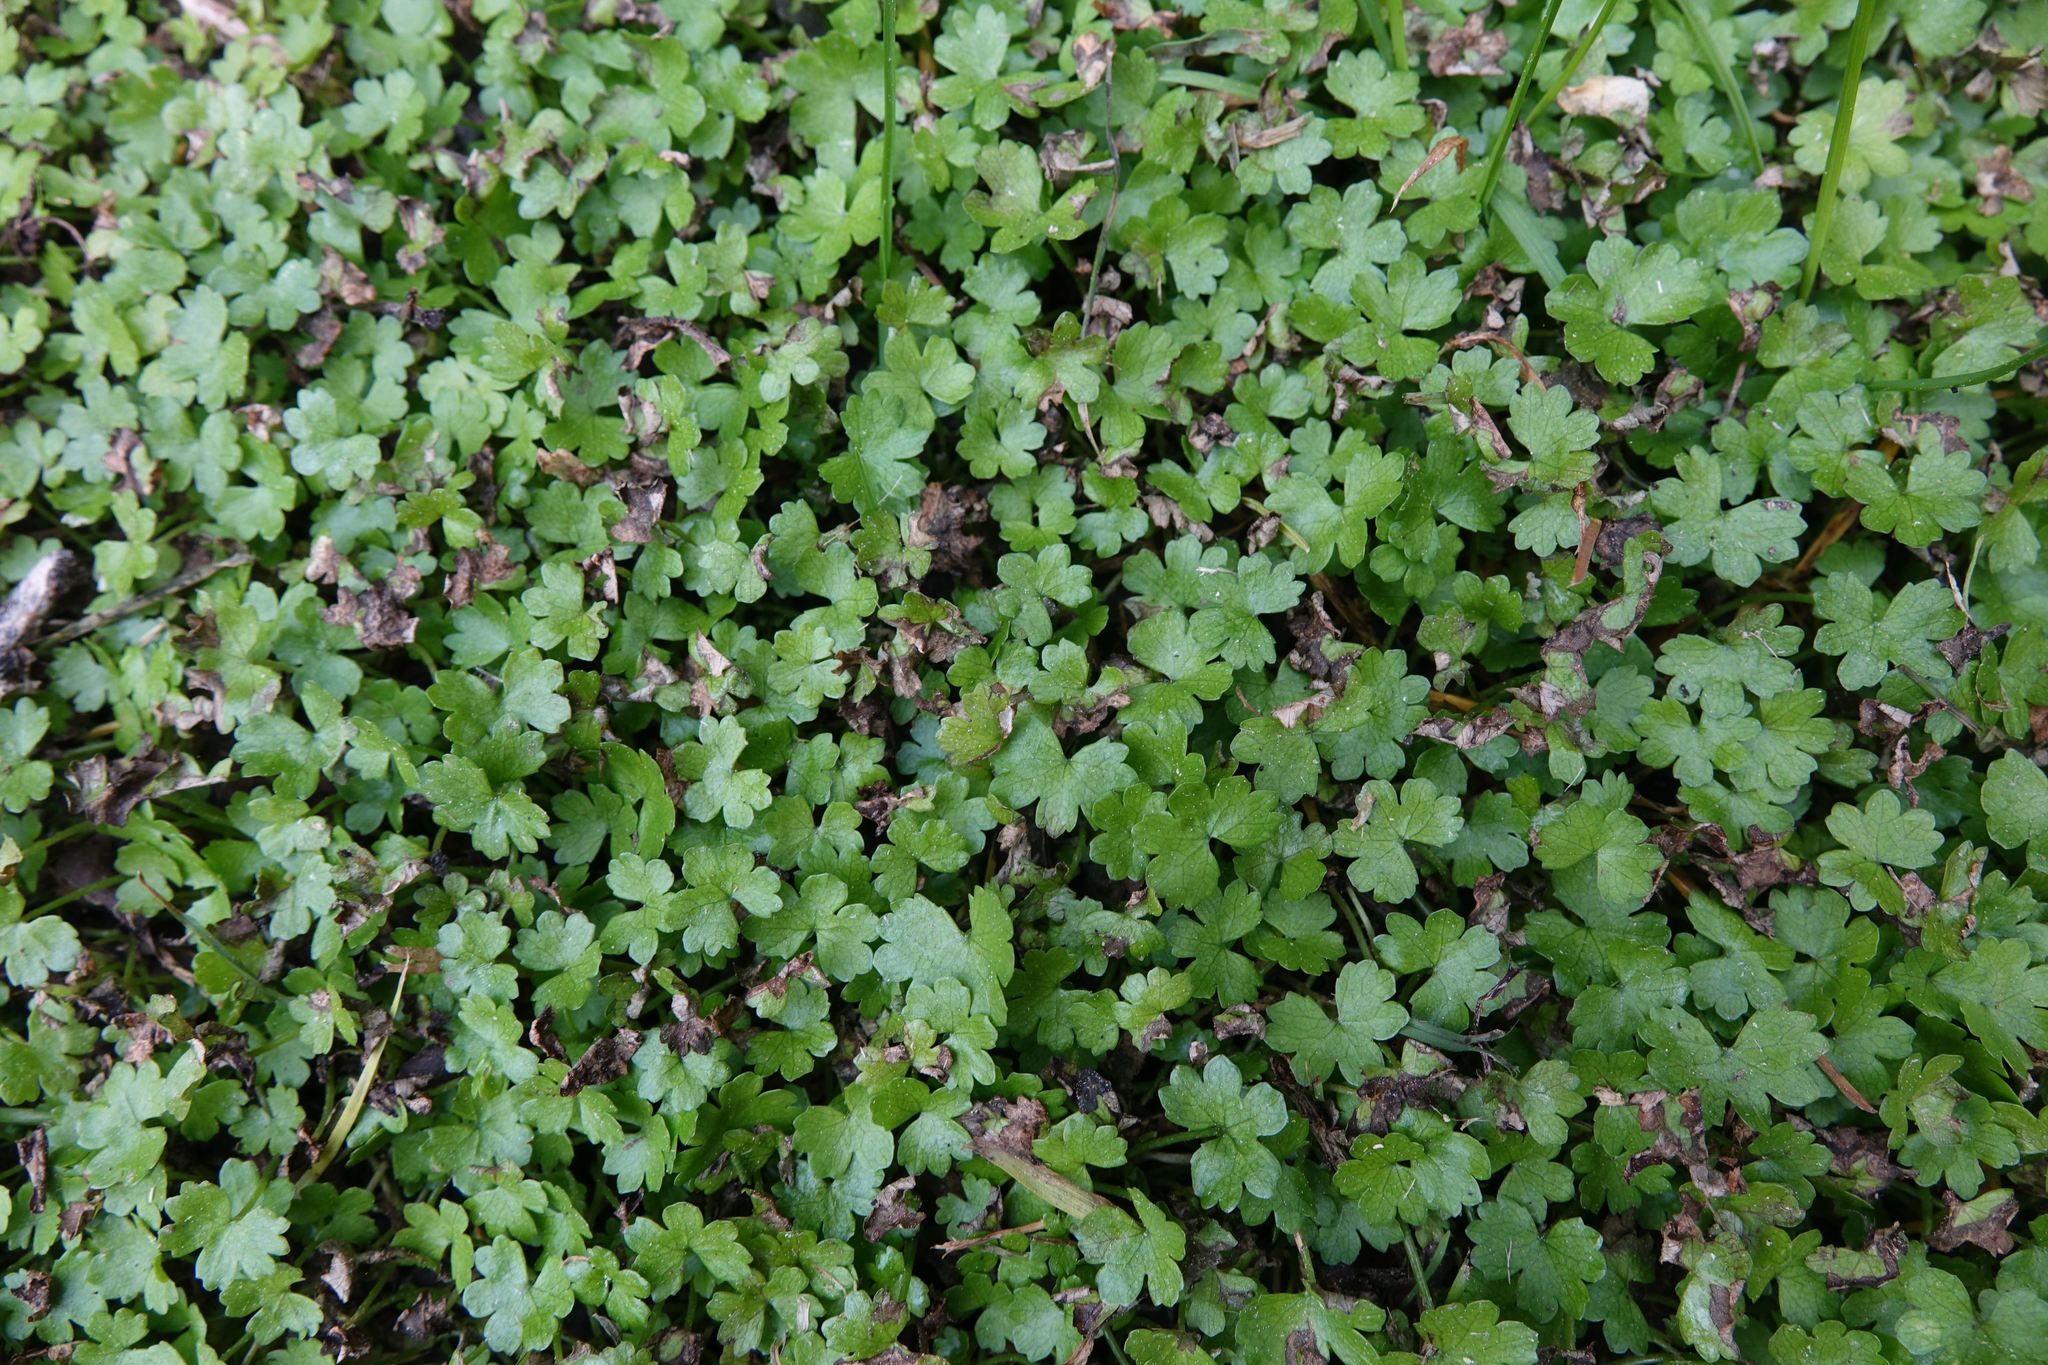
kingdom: Plantae
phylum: Tracheophyta
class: Magnoliopsida
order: Apiales
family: Araliaceae
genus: Hydrocotyle
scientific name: Hydrocotyle heteromeria
